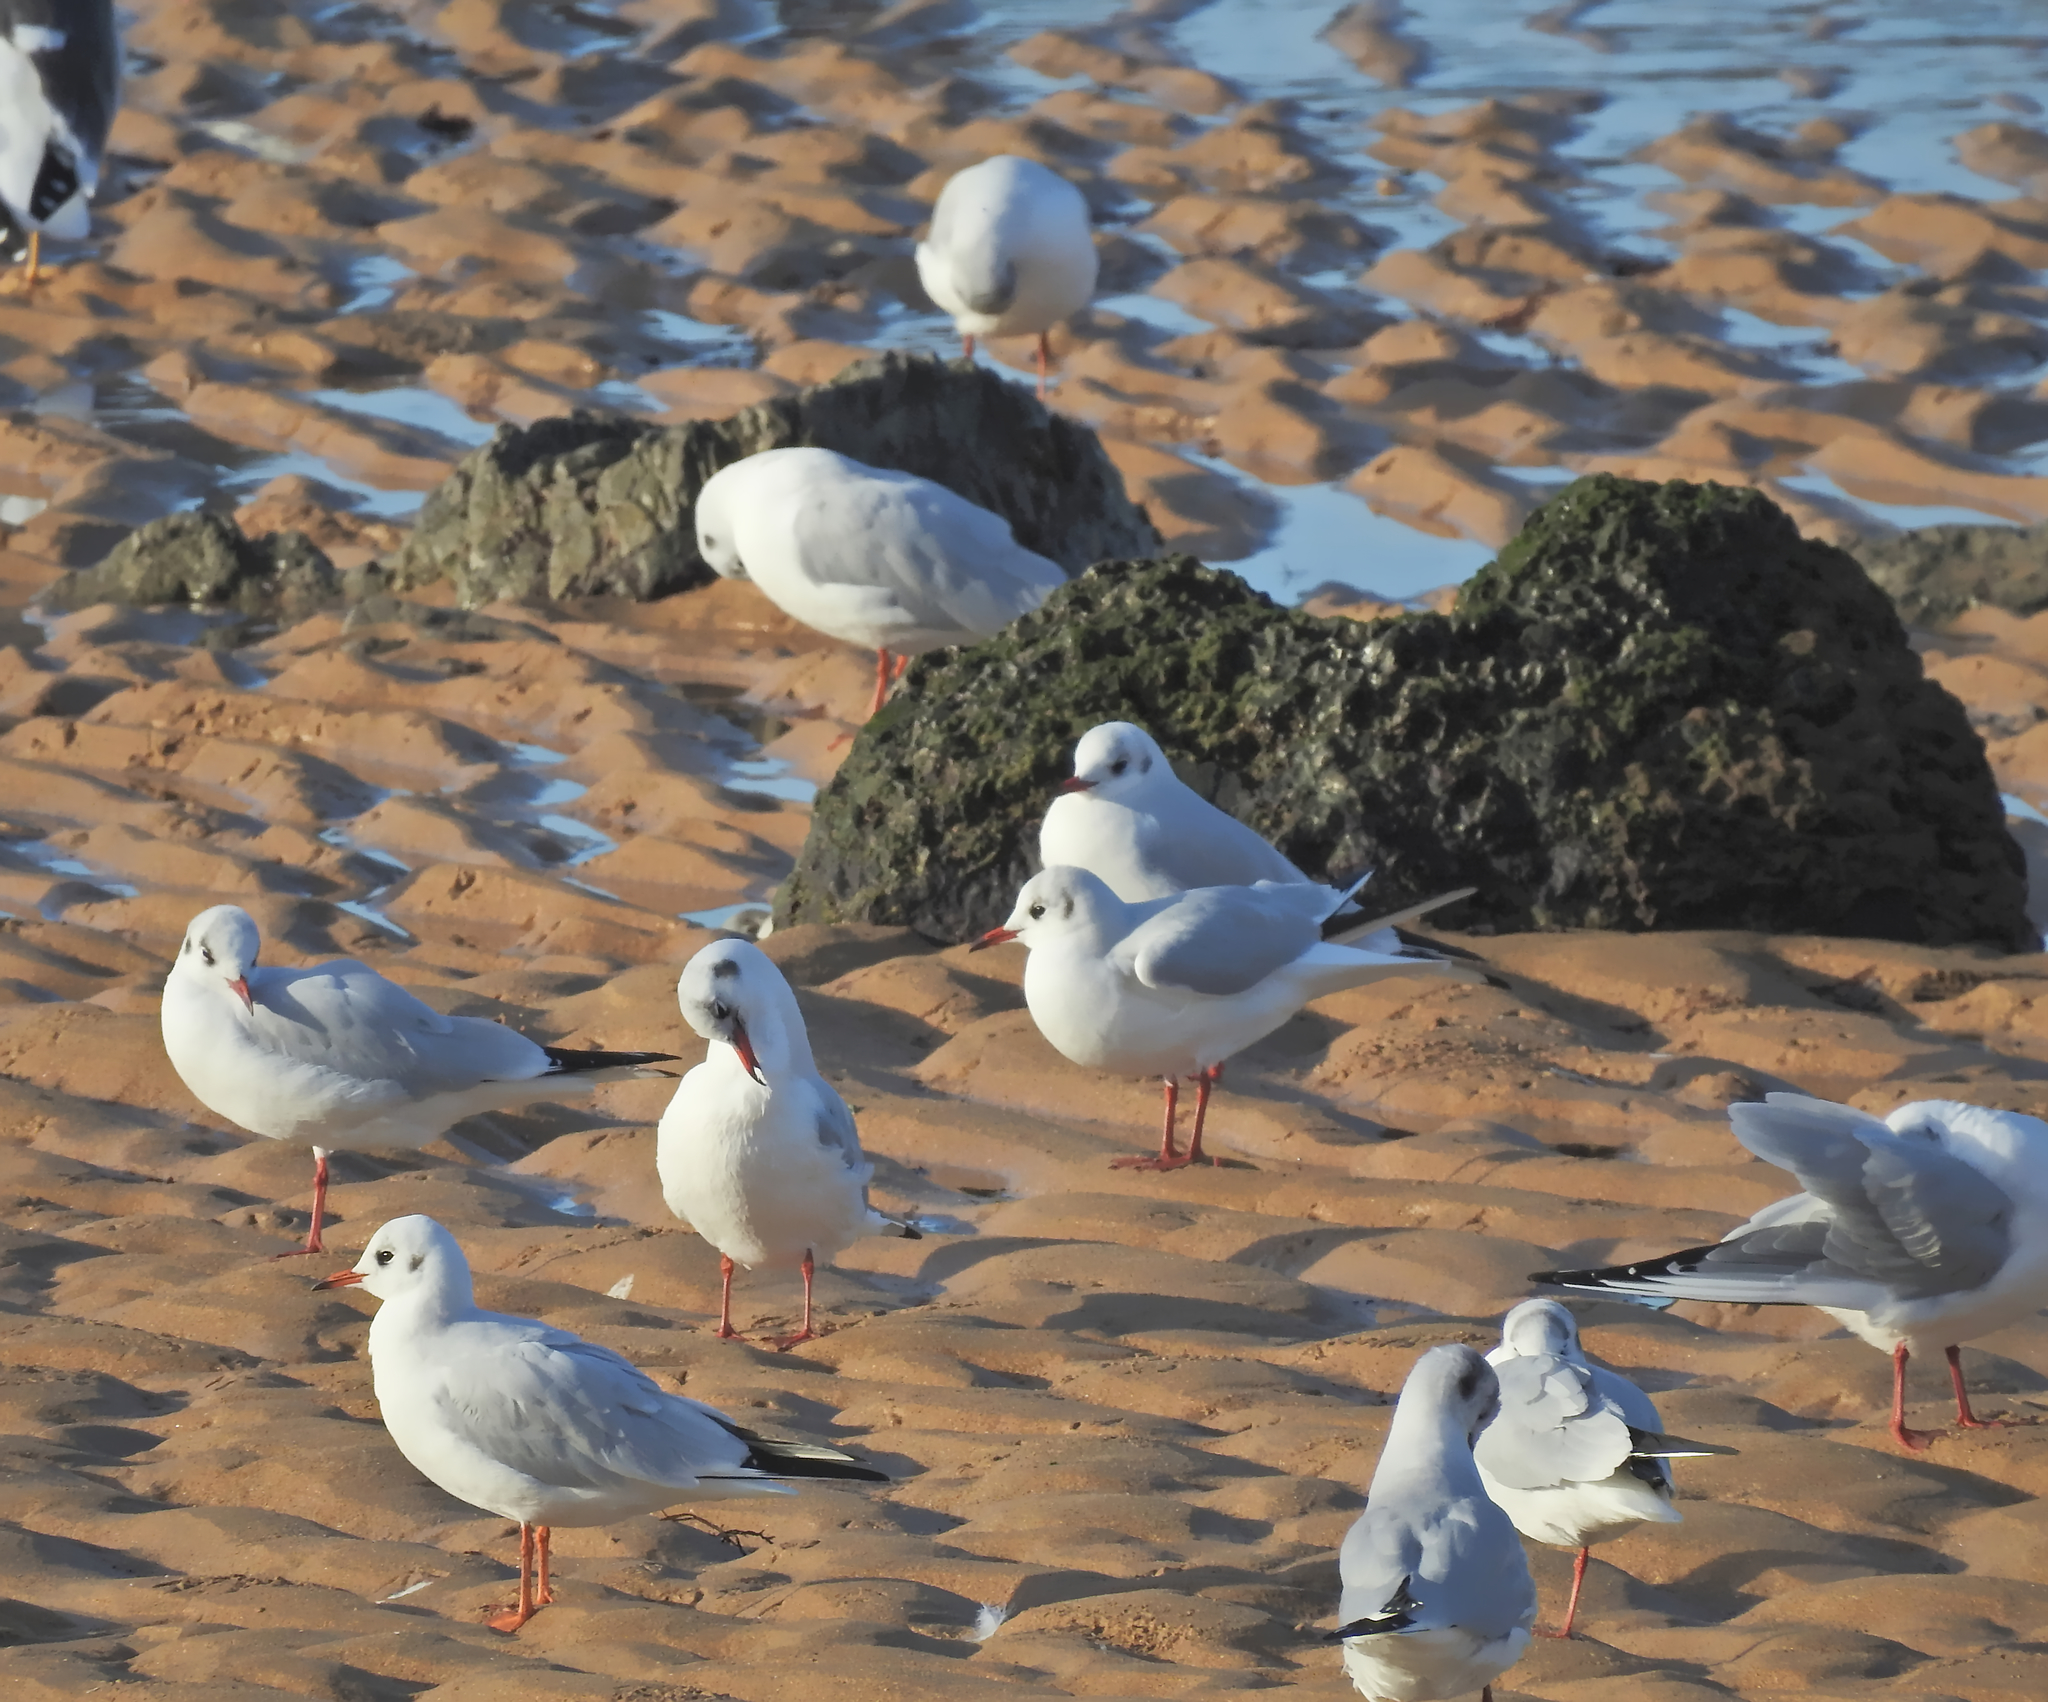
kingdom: Animalia
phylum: Chordata
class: Aves
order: Charadriiformes
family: Laridae
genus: Chroicocephalus
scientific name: Chroicocephalus ridibundus
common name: Black-headed gull
